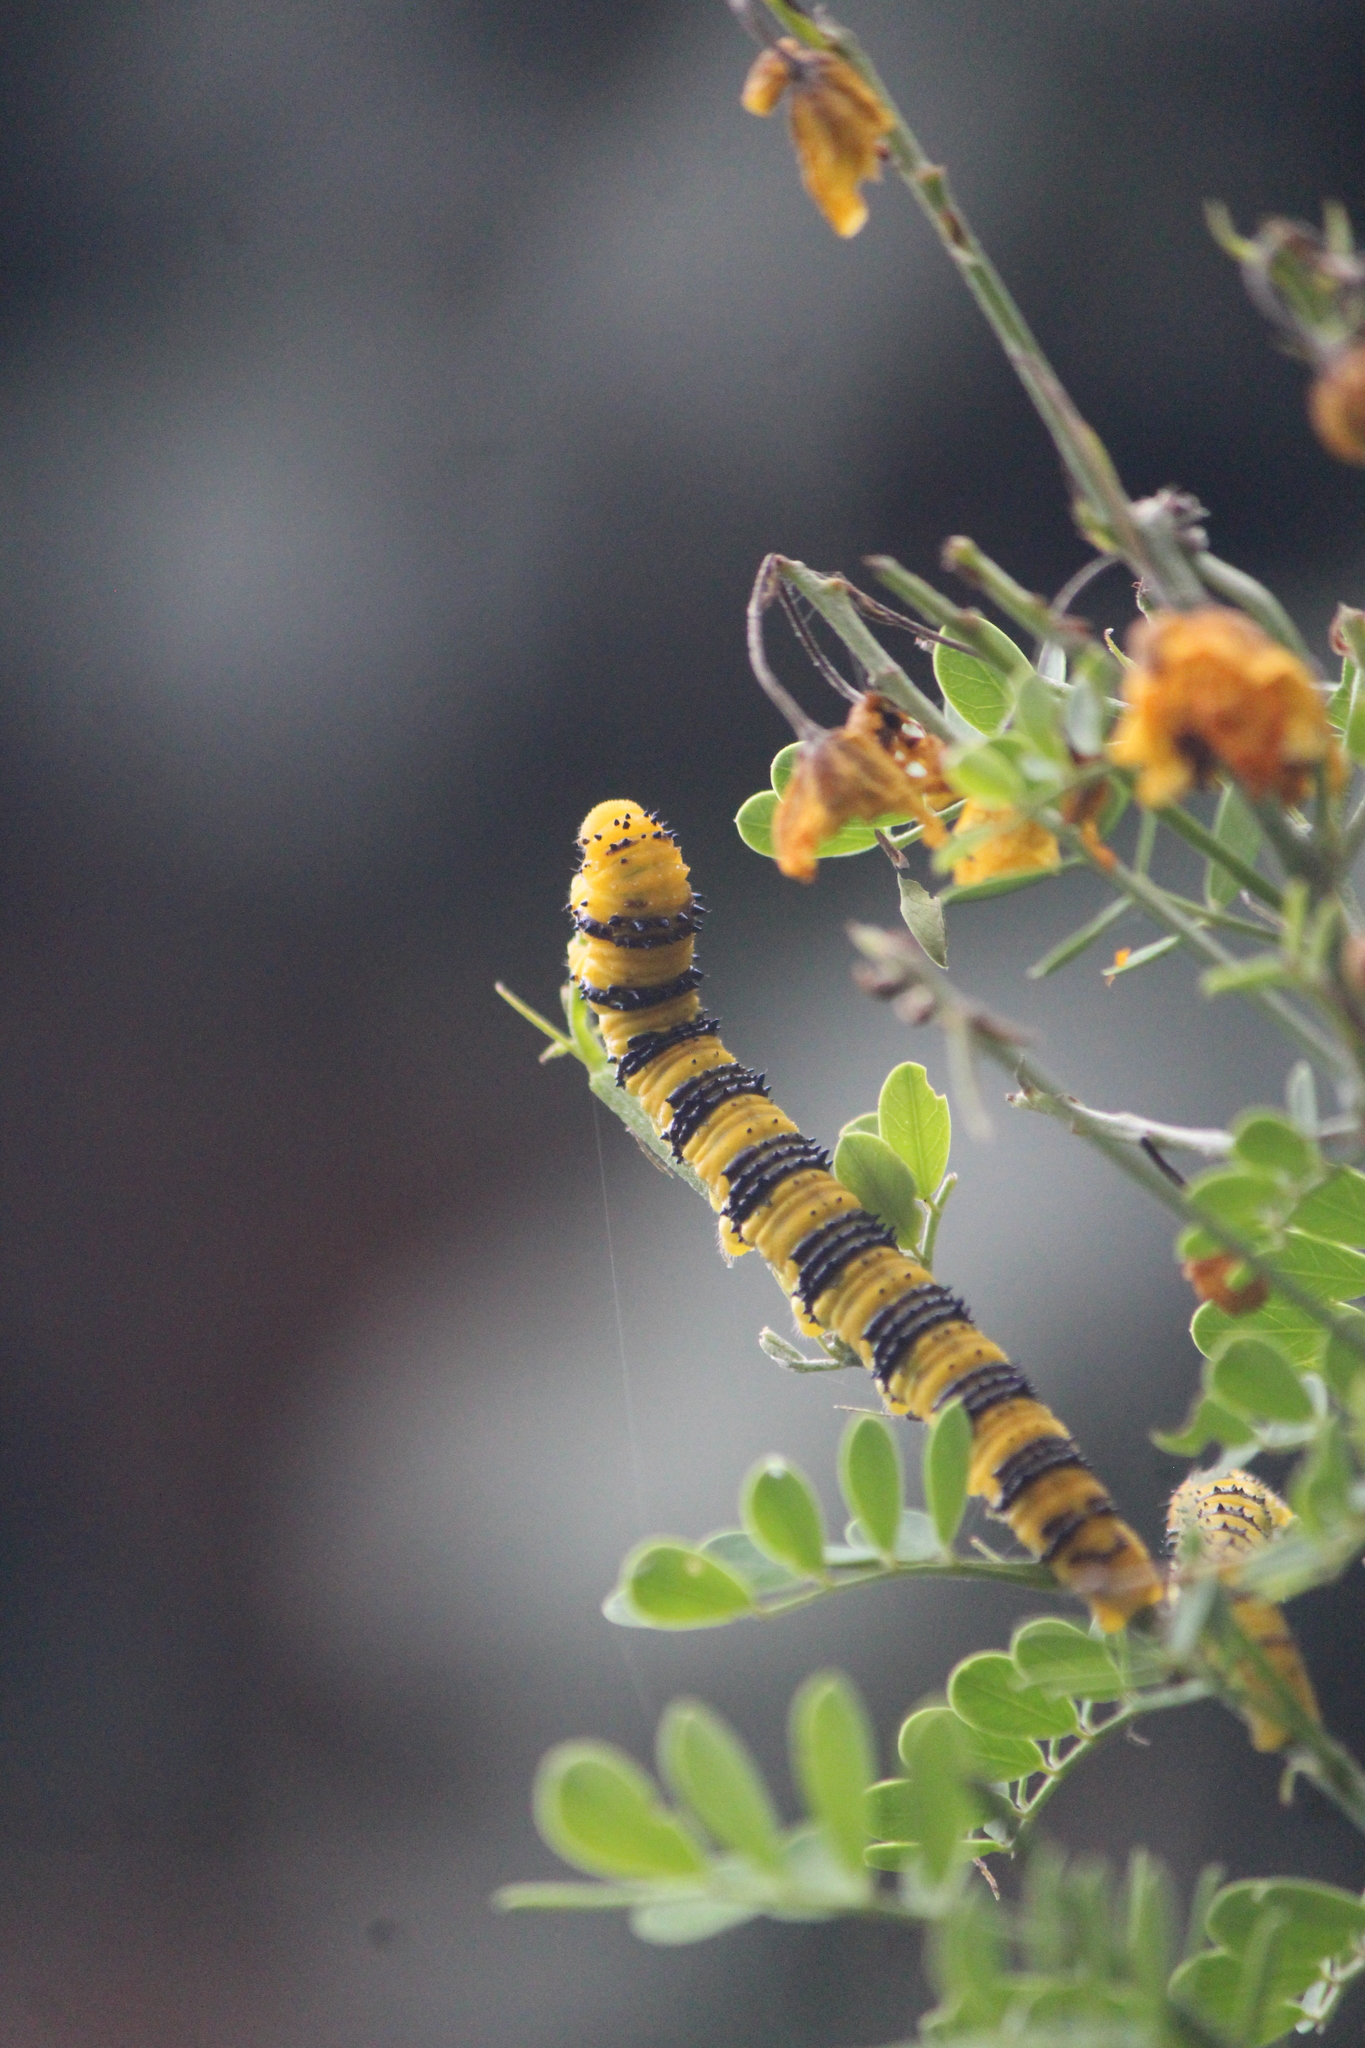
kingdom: Animalia
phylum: Arthropoda
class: Insecta
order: Lepidoptera
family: Pieridae
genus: Phoebis
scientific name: Phoebis philea
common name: Orange-barred giant sulphur
